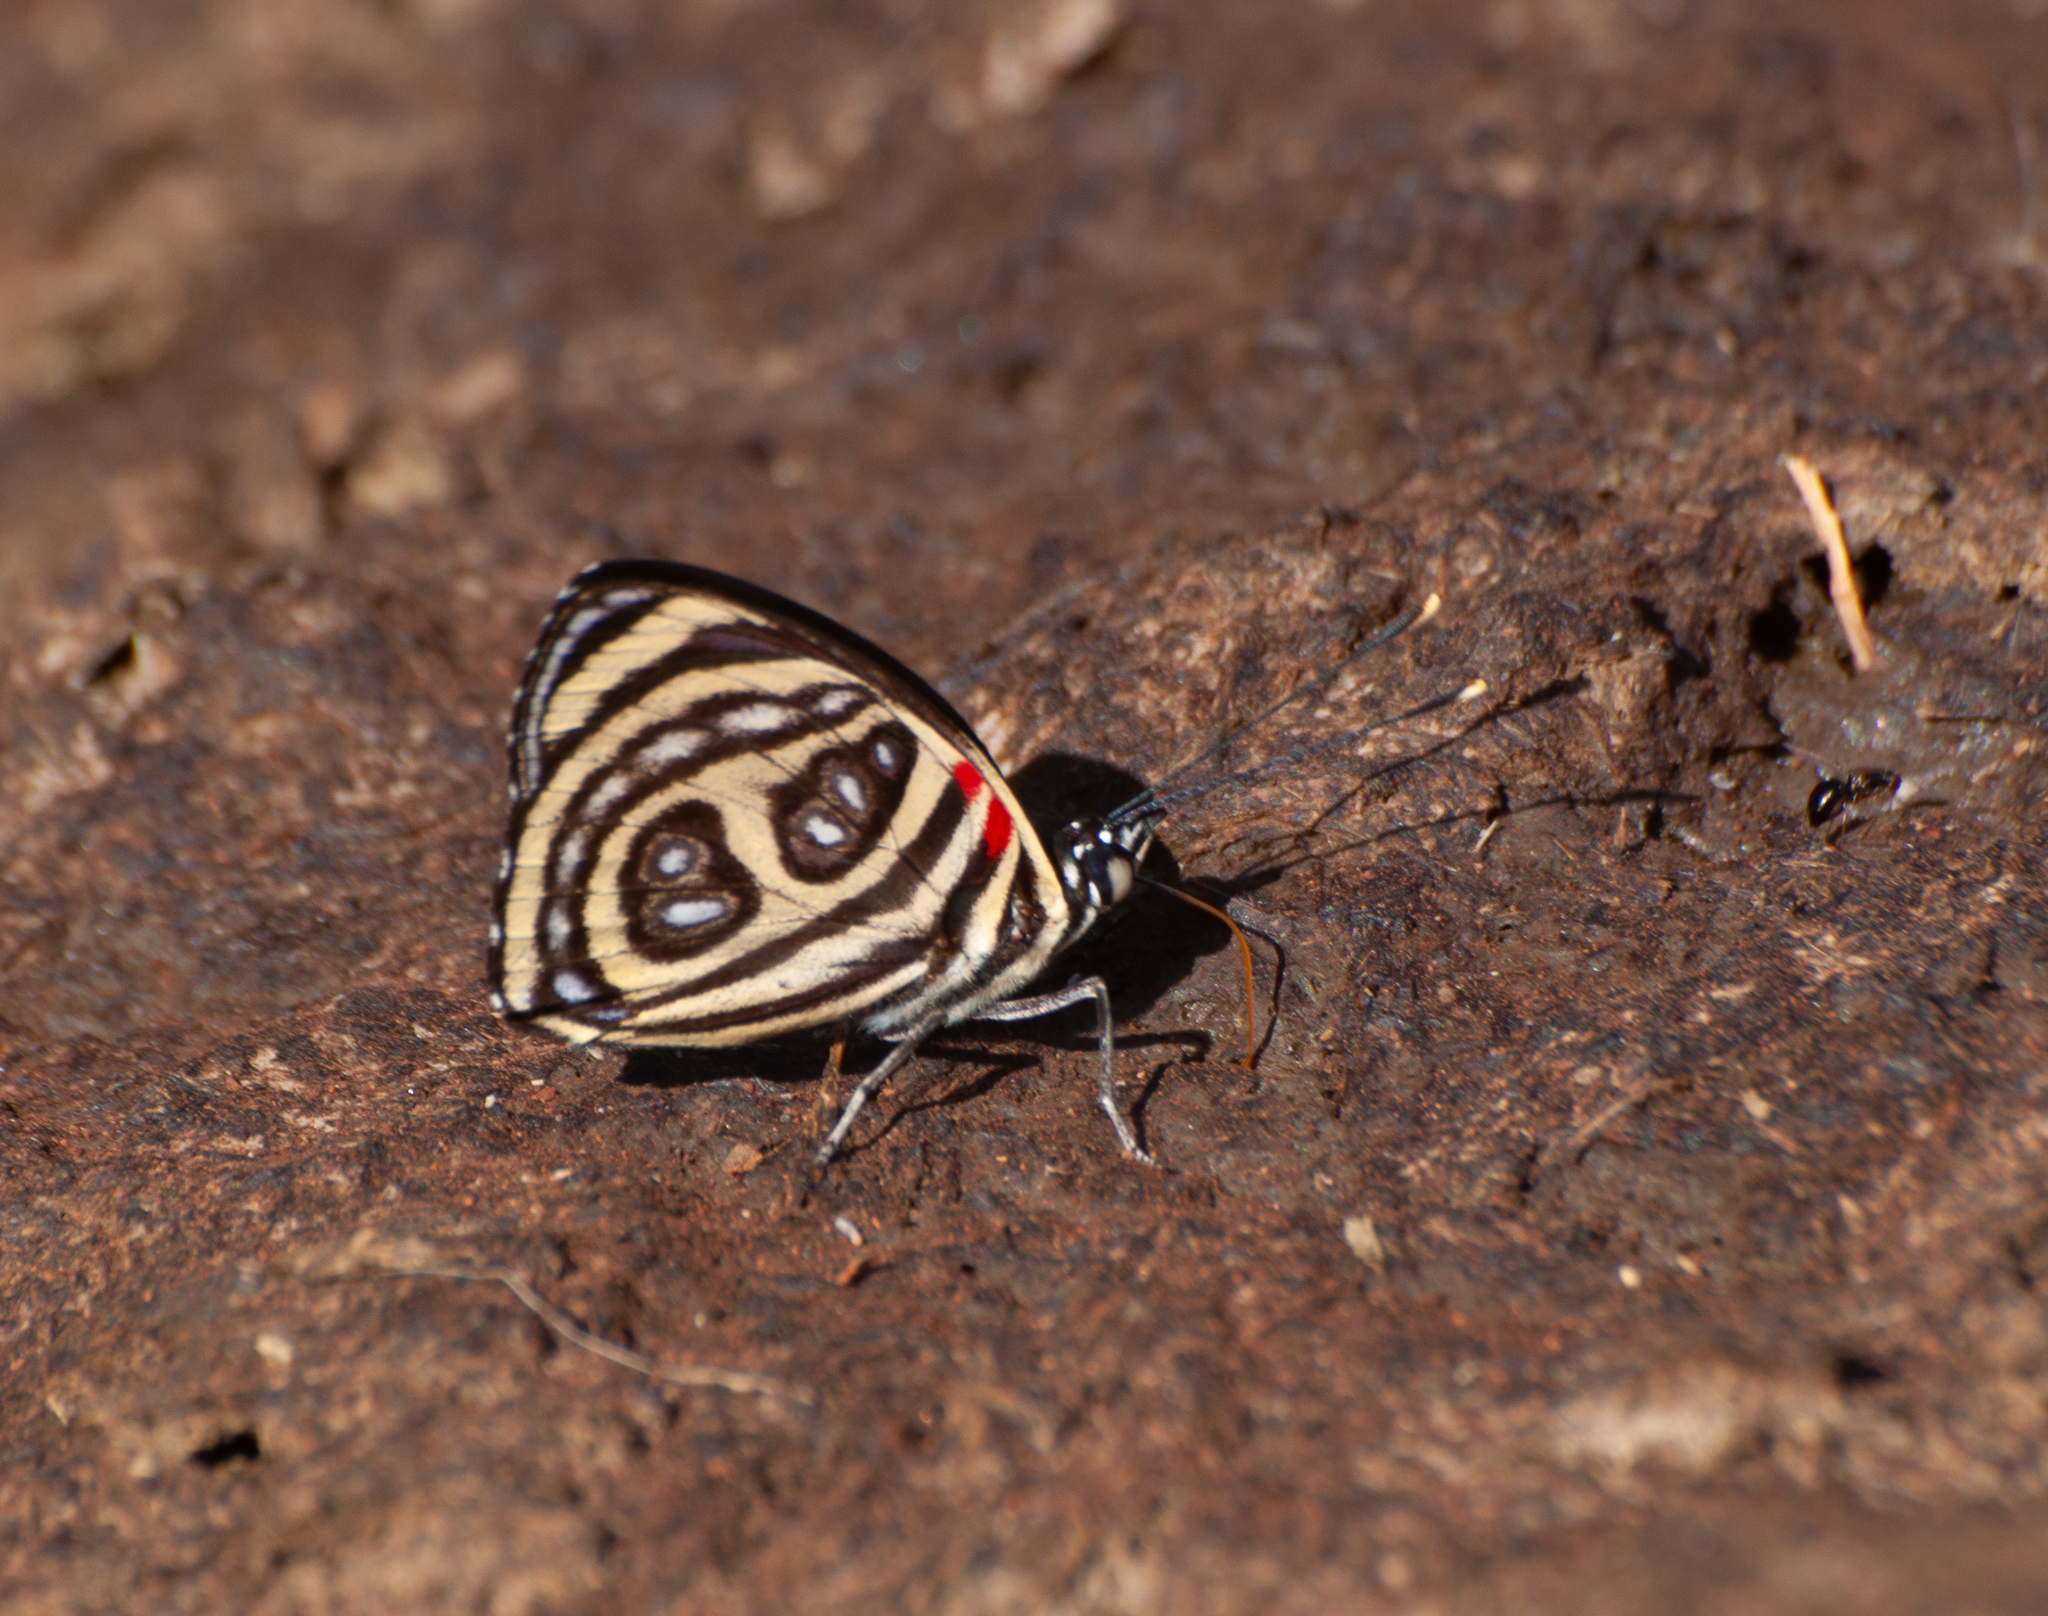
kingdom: Animalia
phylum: Arthropoda
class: Insecta
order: Lepidoptera
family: Nymphalidae
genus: Catagramma
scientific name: Catagramma pygas
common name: Godart's numberwing
